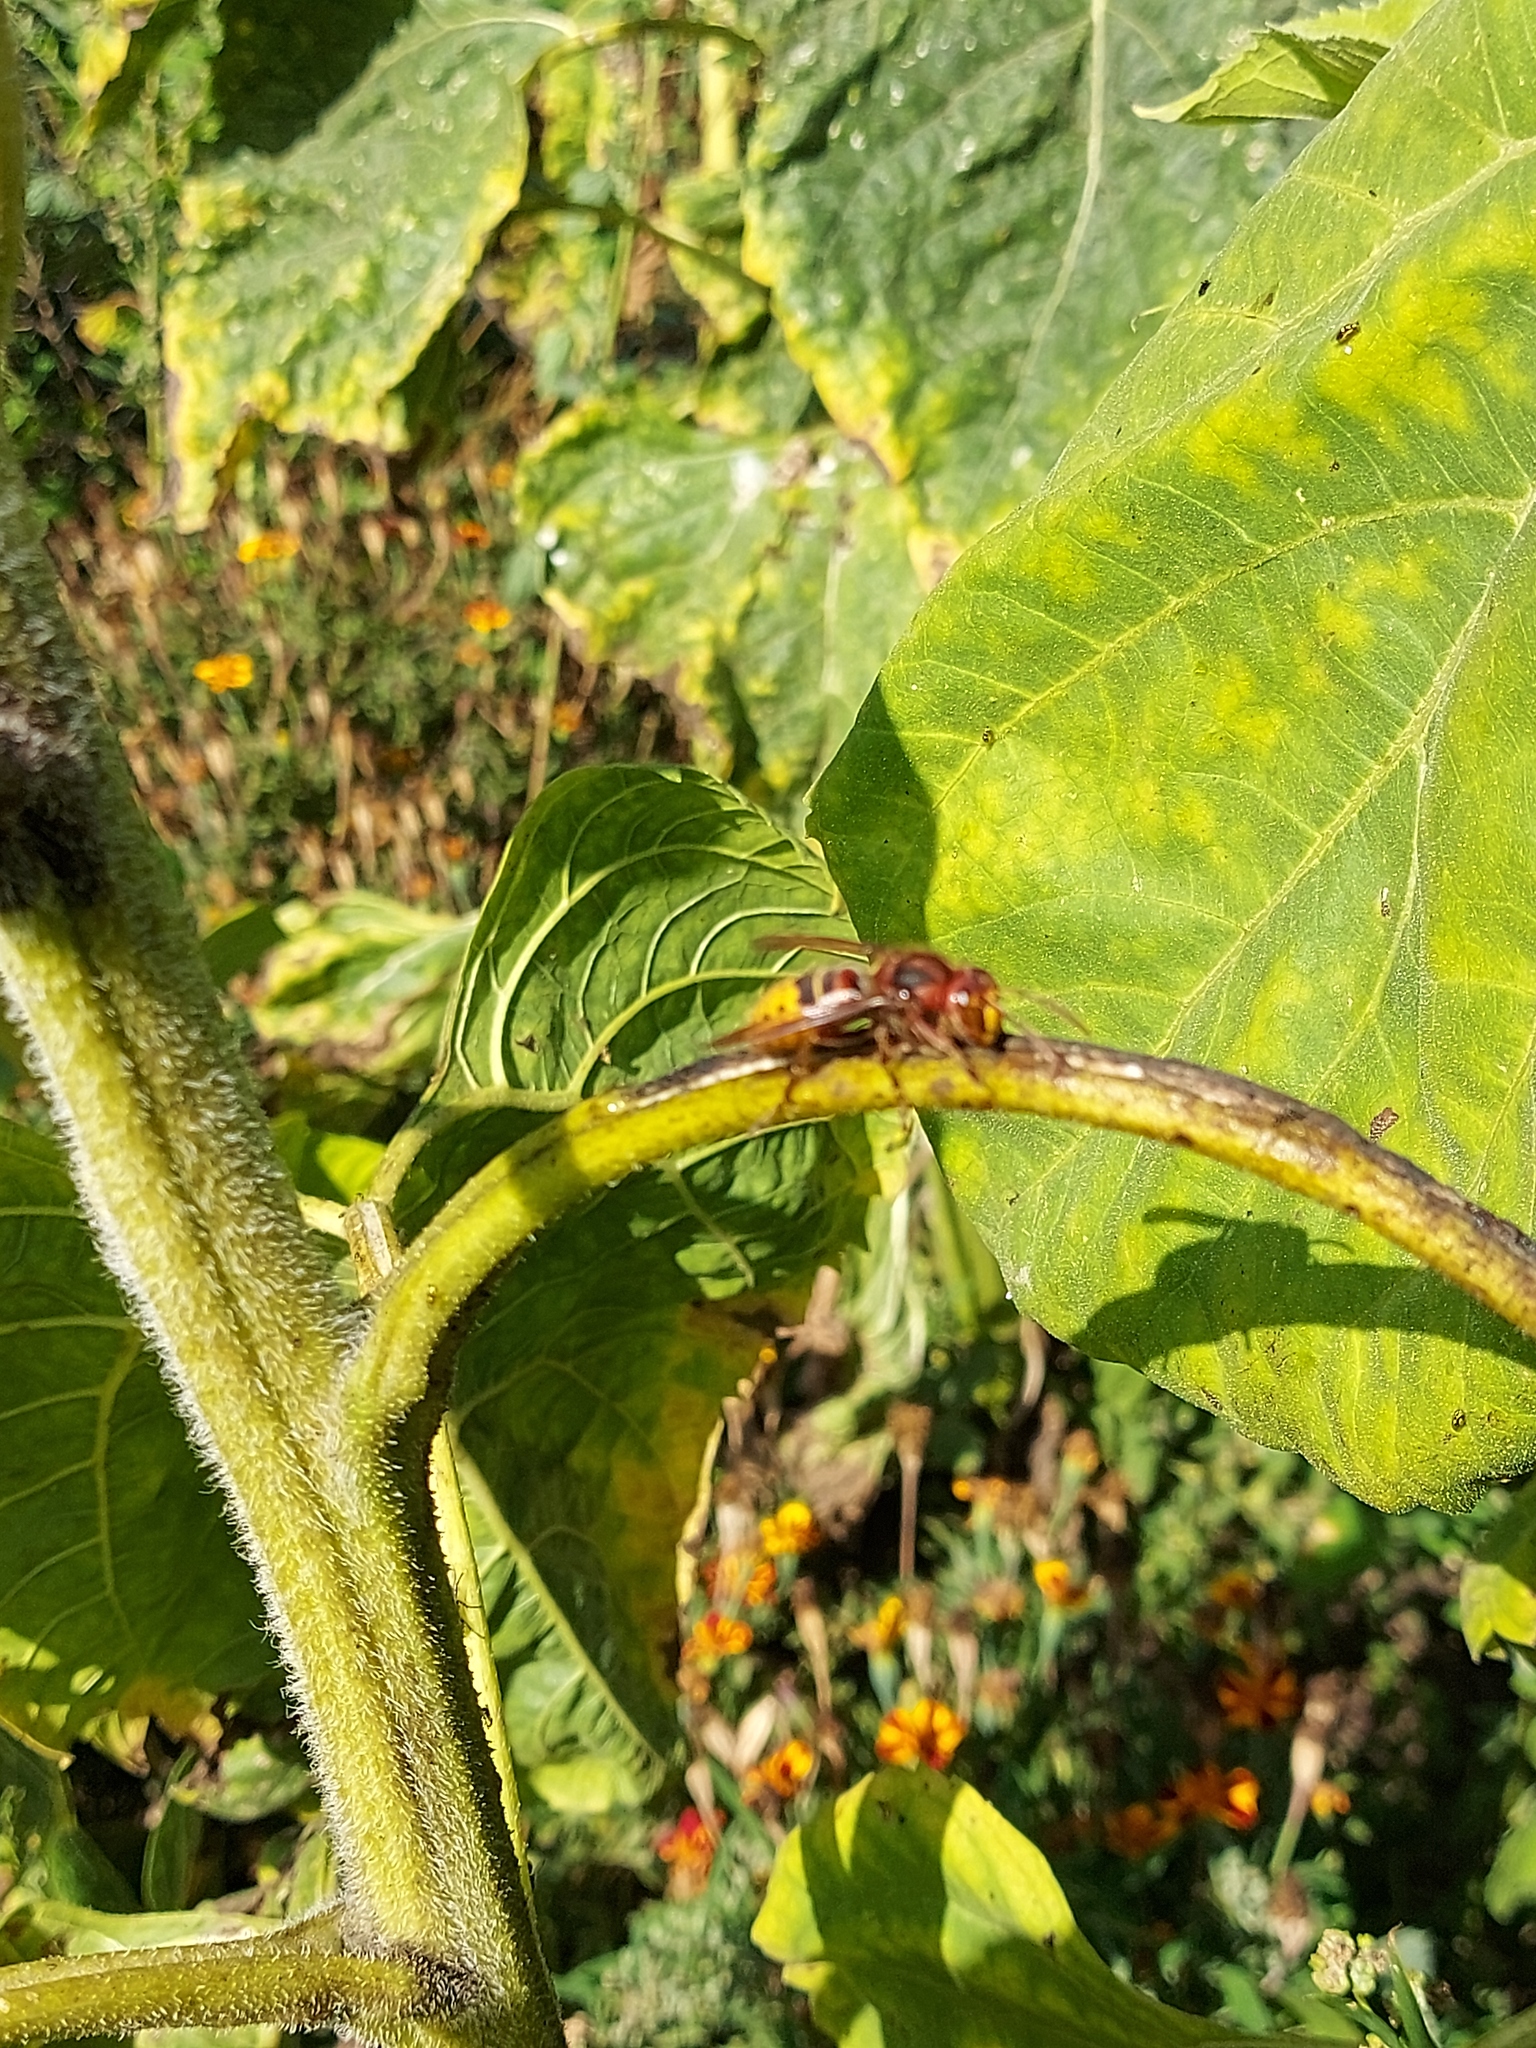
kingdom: Animalia
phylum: Arthropoda
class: Insecta
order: Hymenoptera
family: Vespidae
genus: Vespa
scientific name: Vespa crabro
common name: Hornet
